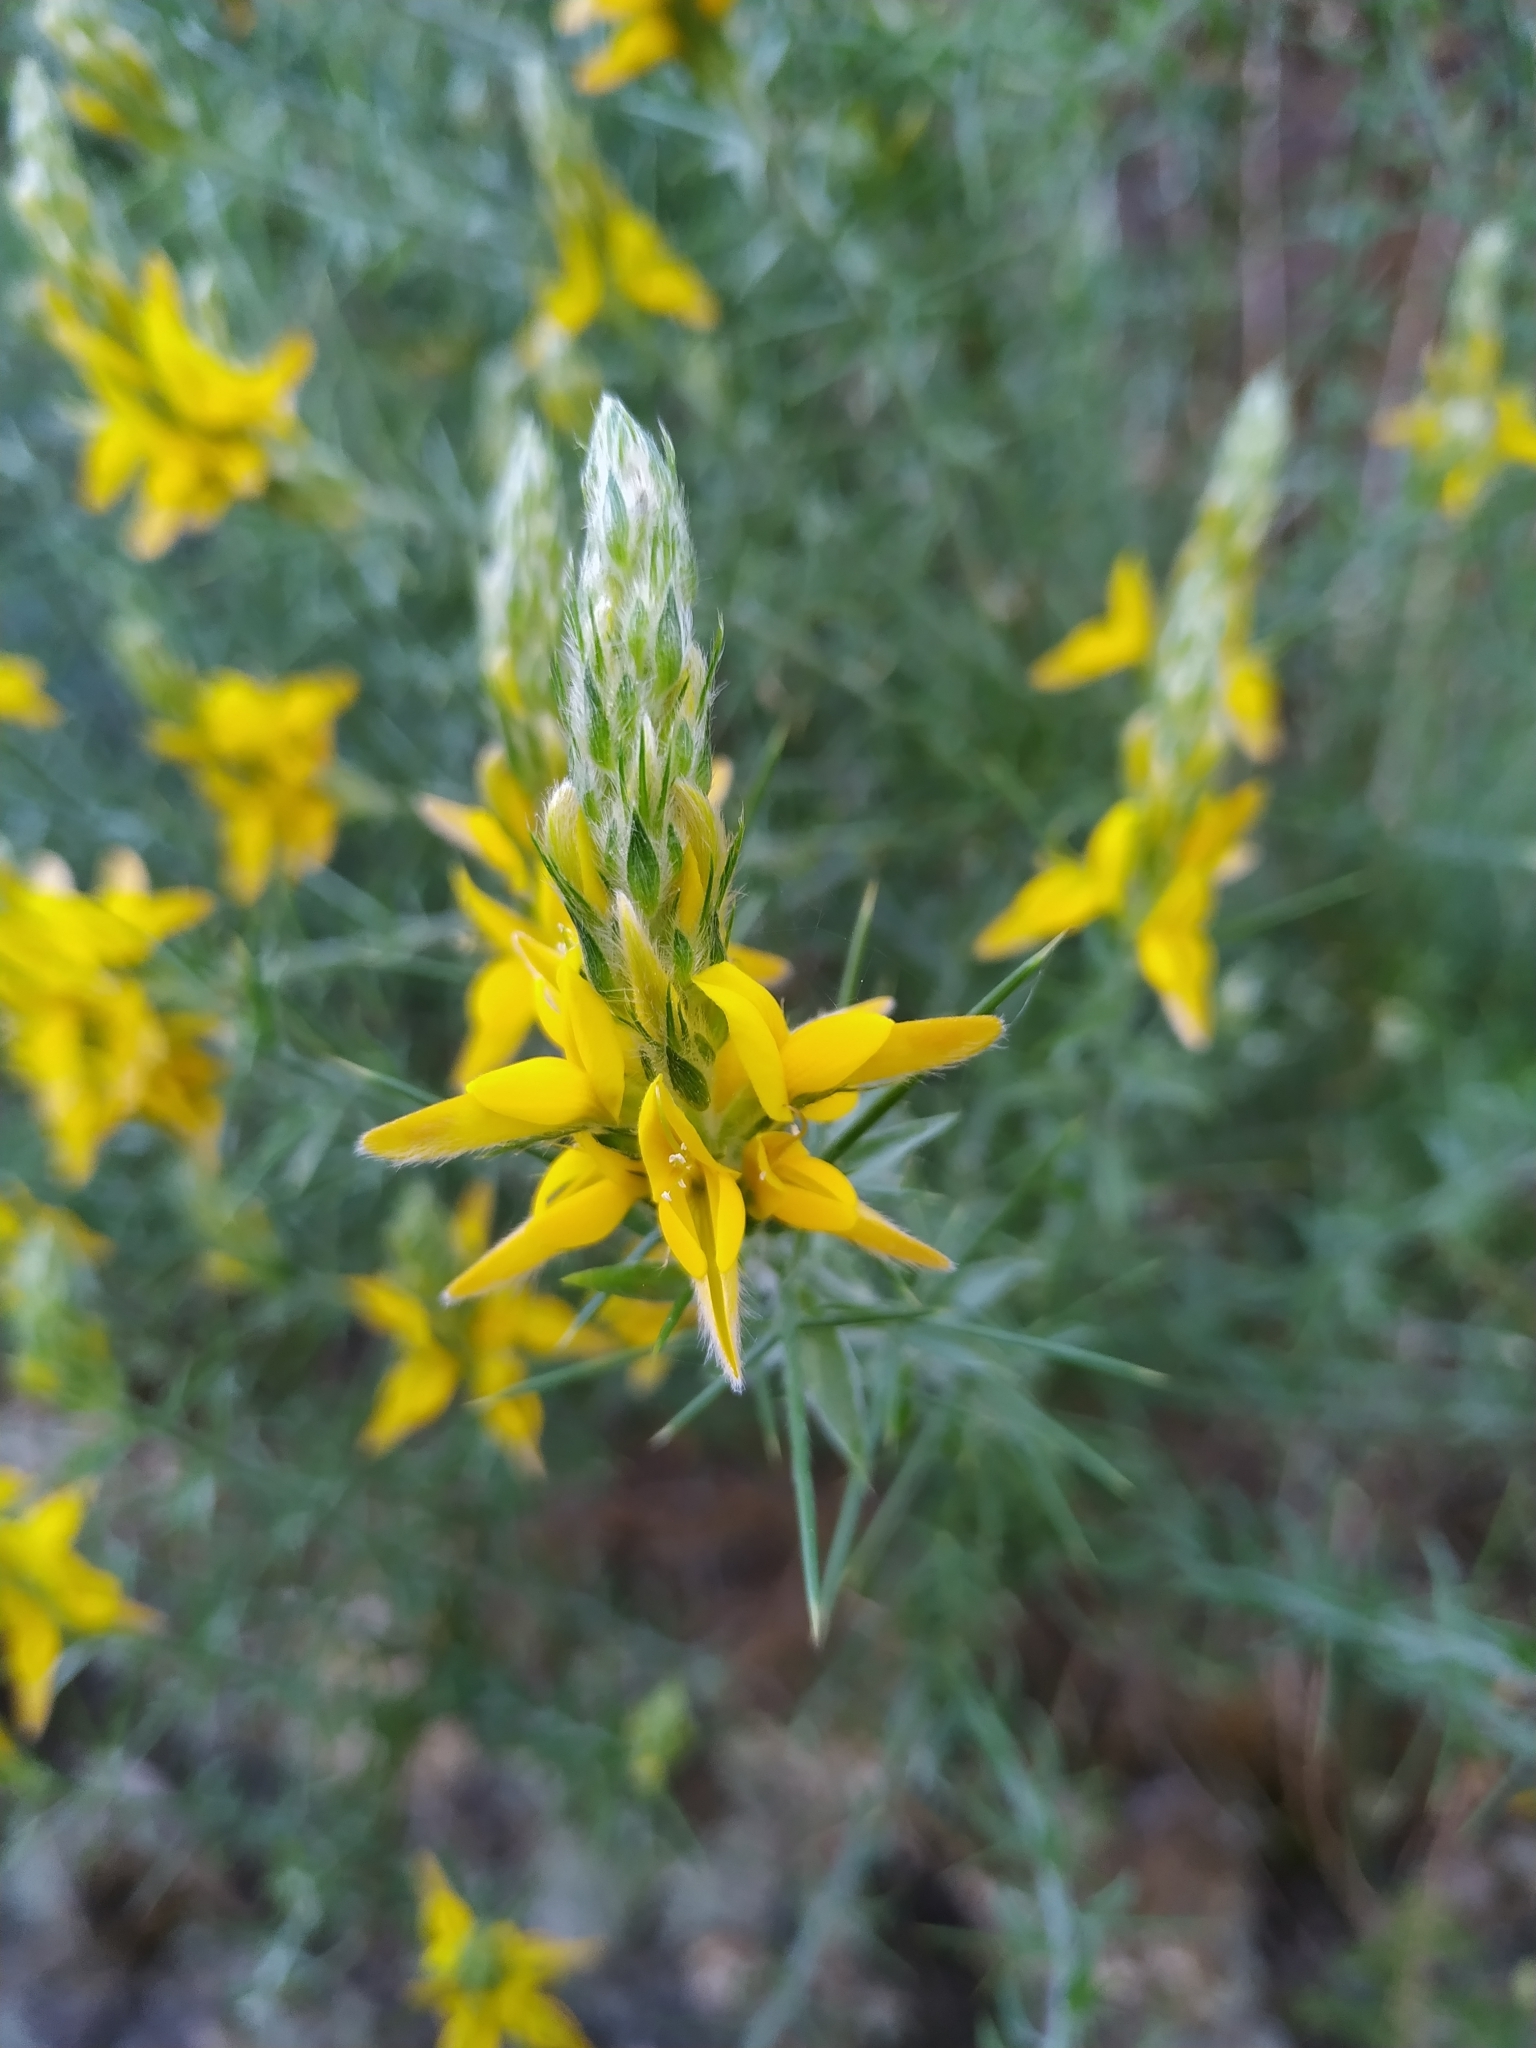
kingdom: Plantae
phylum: Tracheophyta
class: Magnoliopsida
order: Fabales
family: Fabaceae
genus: Genista
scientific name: Genista hirsuta
